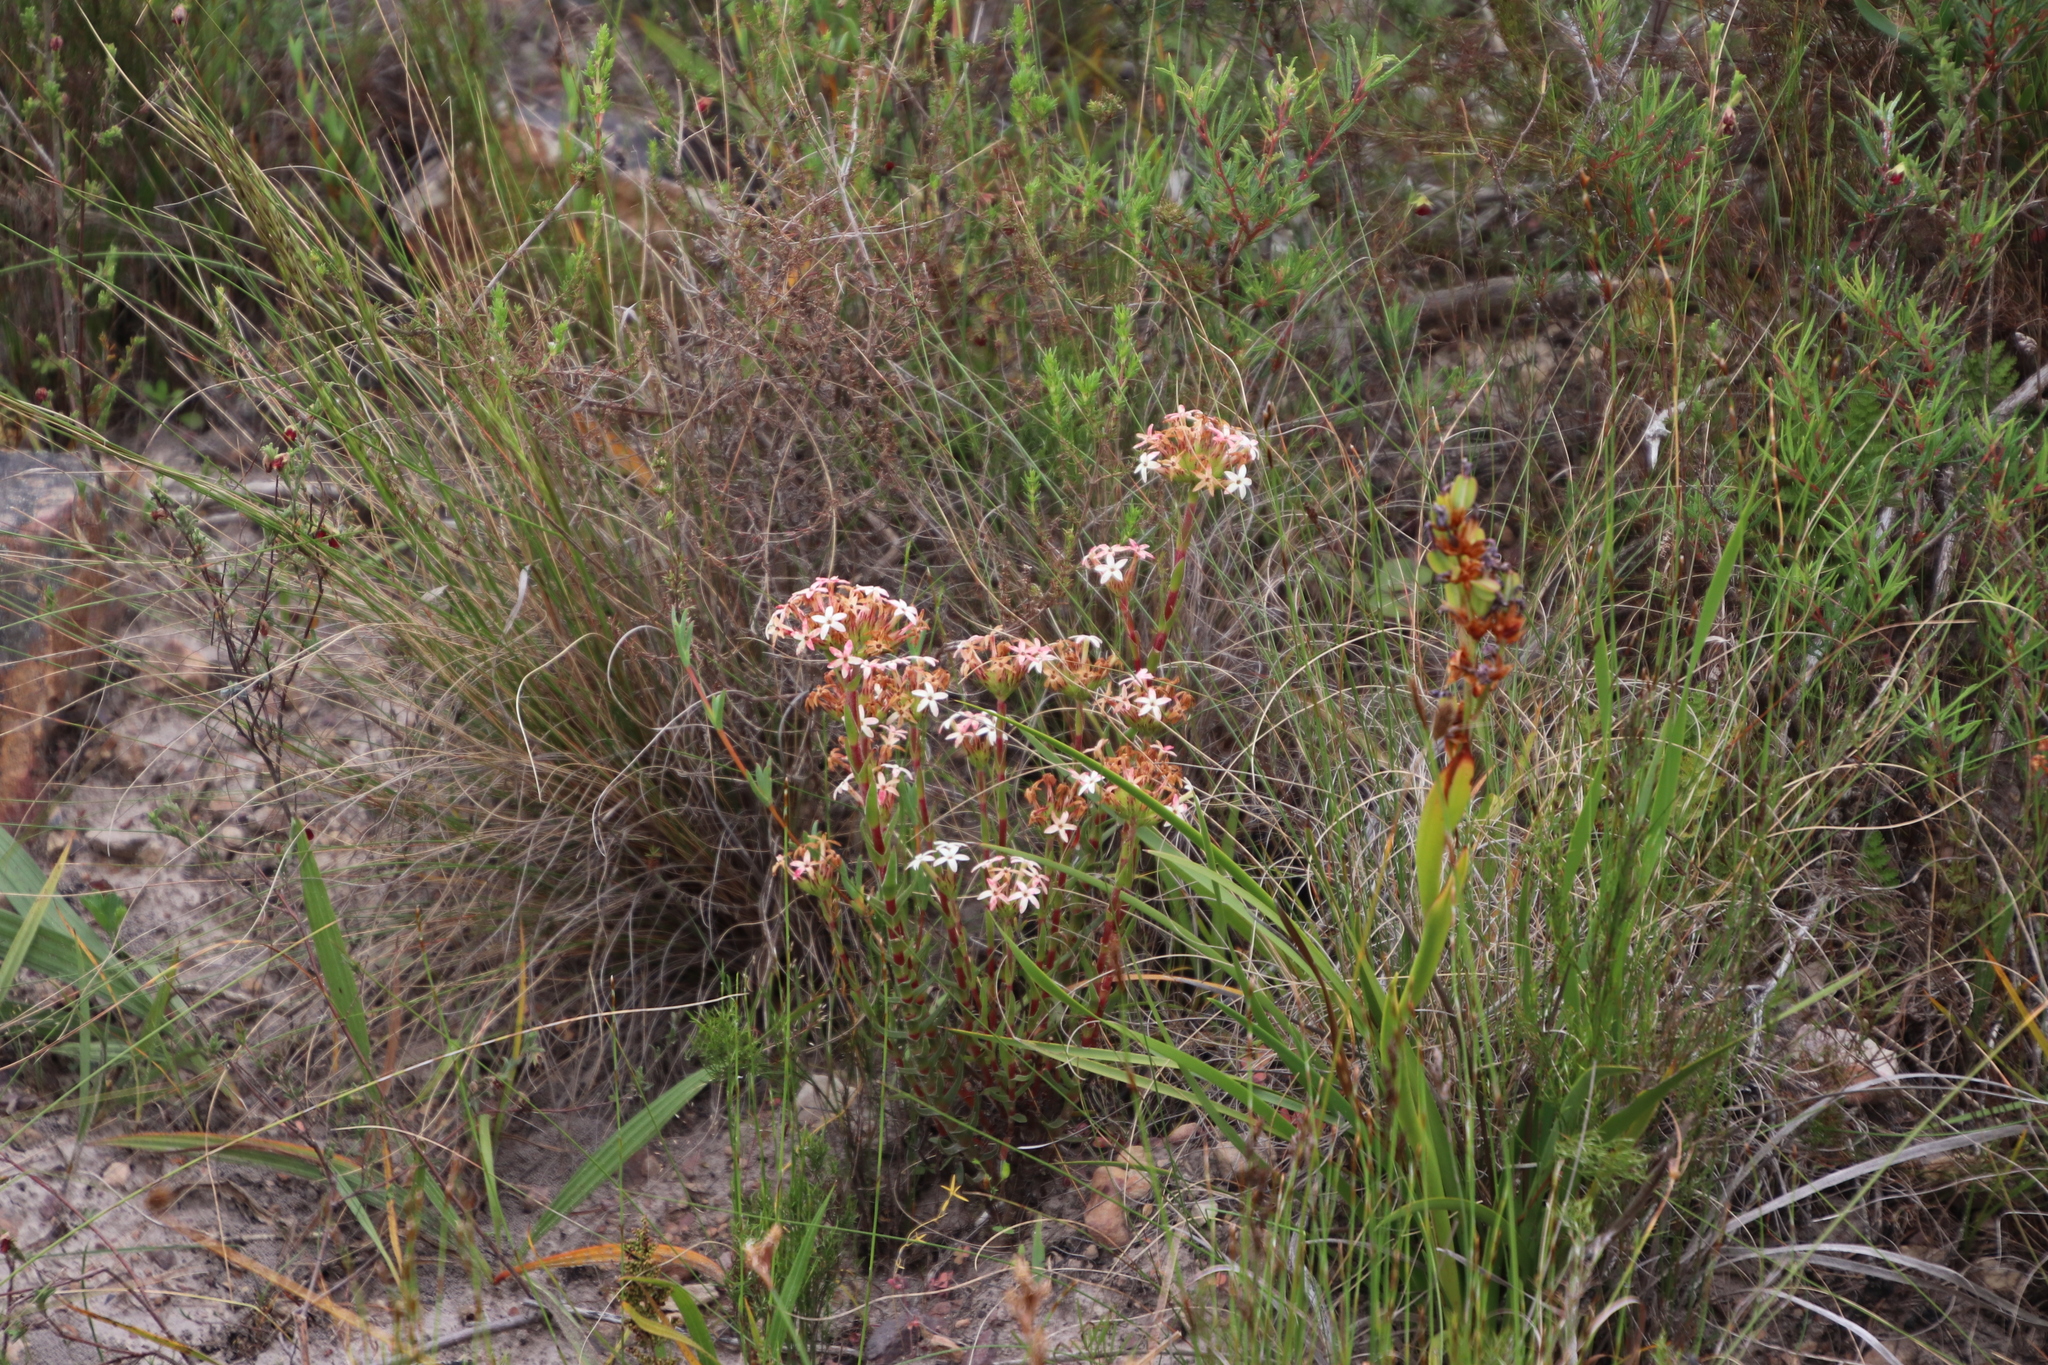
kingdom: Plantae
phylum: Tracheophyta
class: Magnoliopsida
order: Saxifragales
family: Crassulaceae
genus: Crassula
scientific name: Crassula fascicularis
